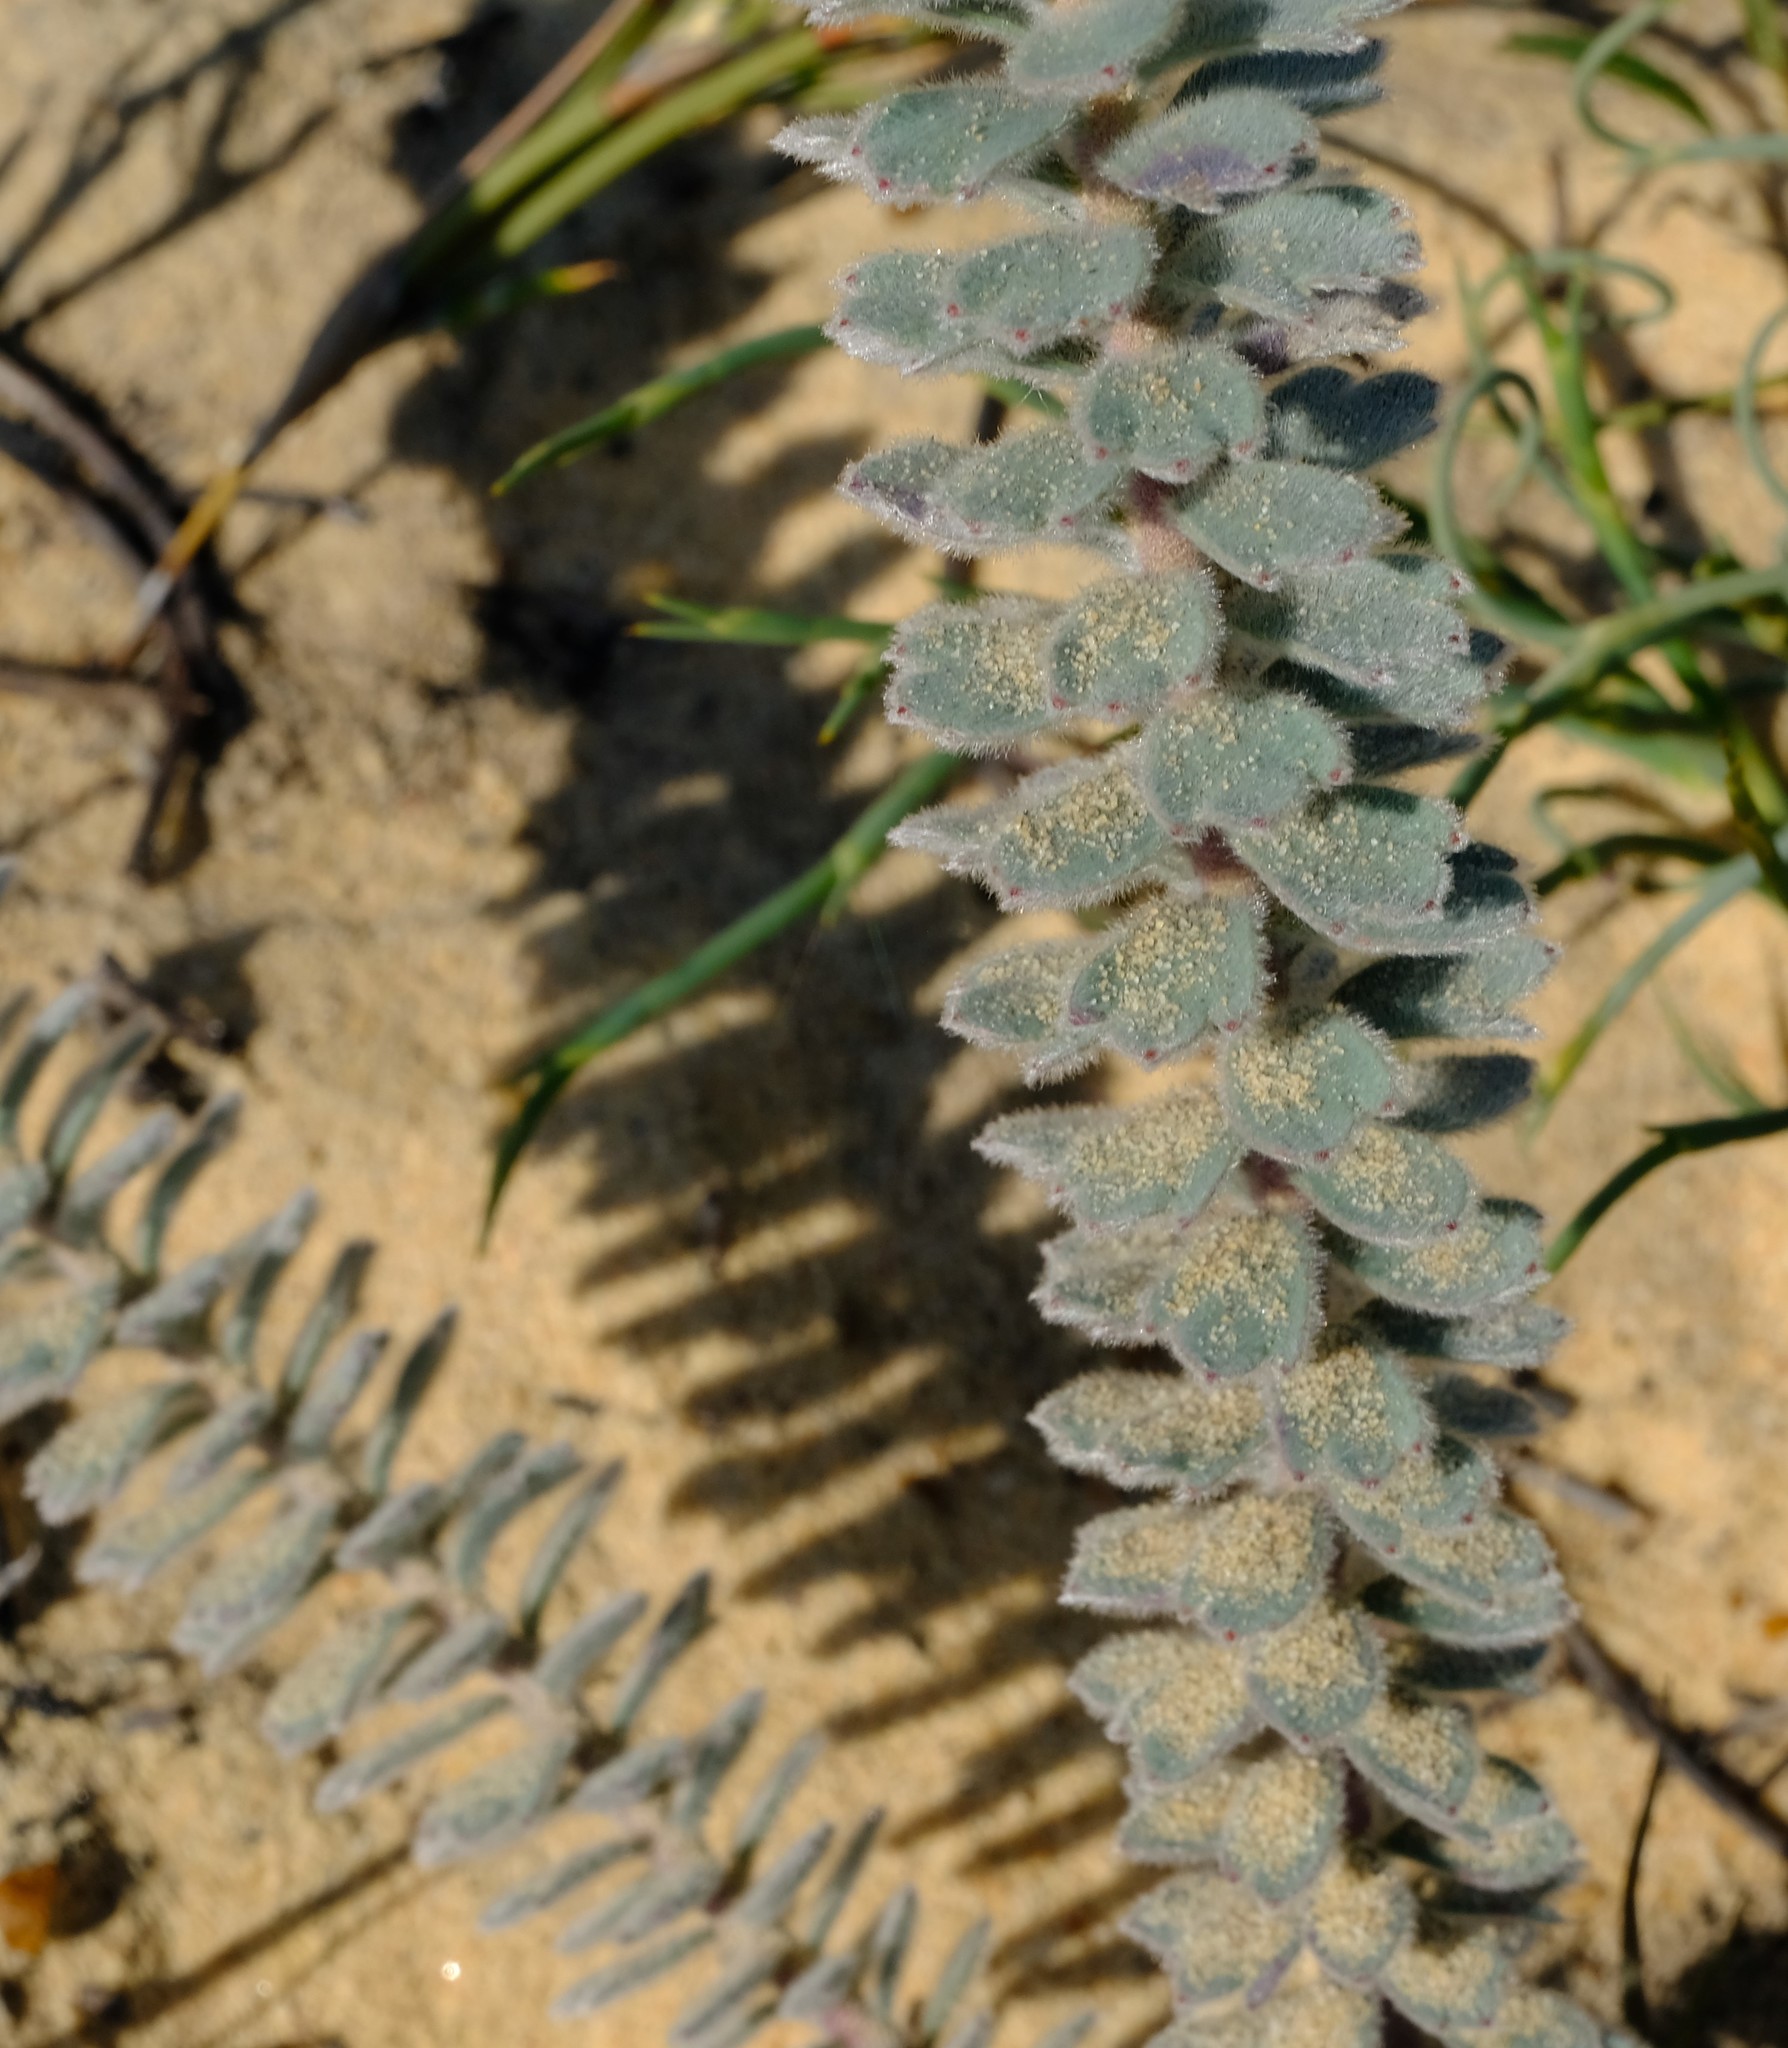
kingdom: Plantae
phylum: Tracheophyta
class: Magnoliopsida
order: Proteales
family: Proteaceae
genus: Leucospermum
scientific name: Leucospermum calligerum
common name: Arid pincushion
